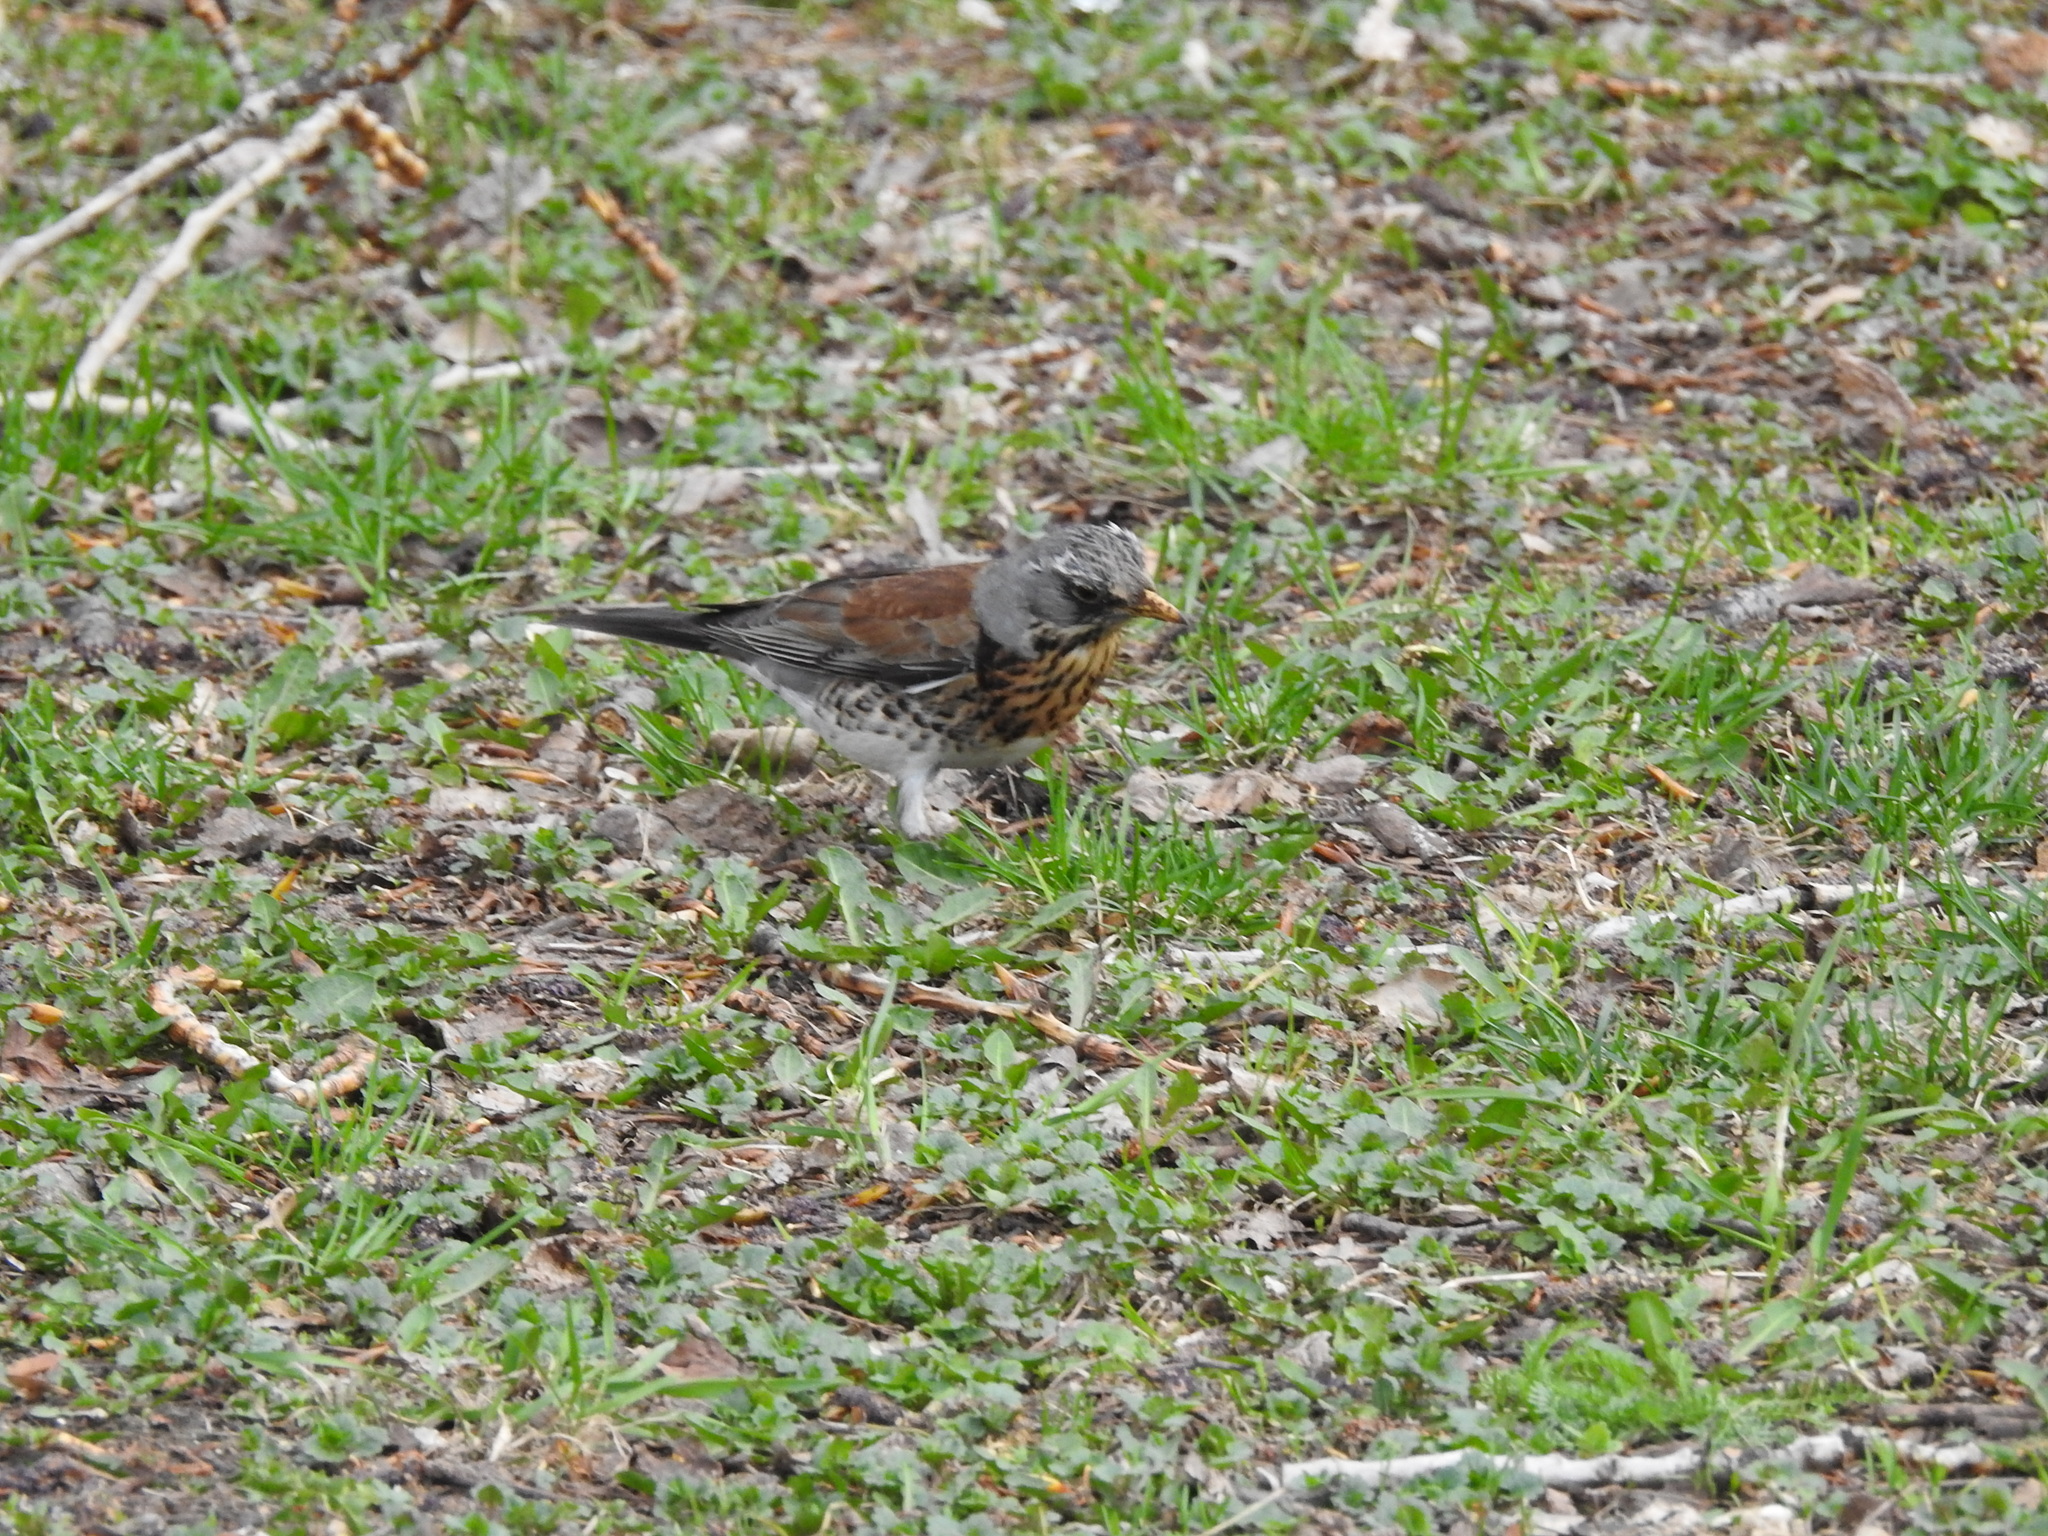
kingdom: Animalia
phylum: Chordata
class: Aves
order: Passeriformes
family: Turdidae
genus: Turdus
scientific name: Turdus pilaris
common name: Fieldfare
